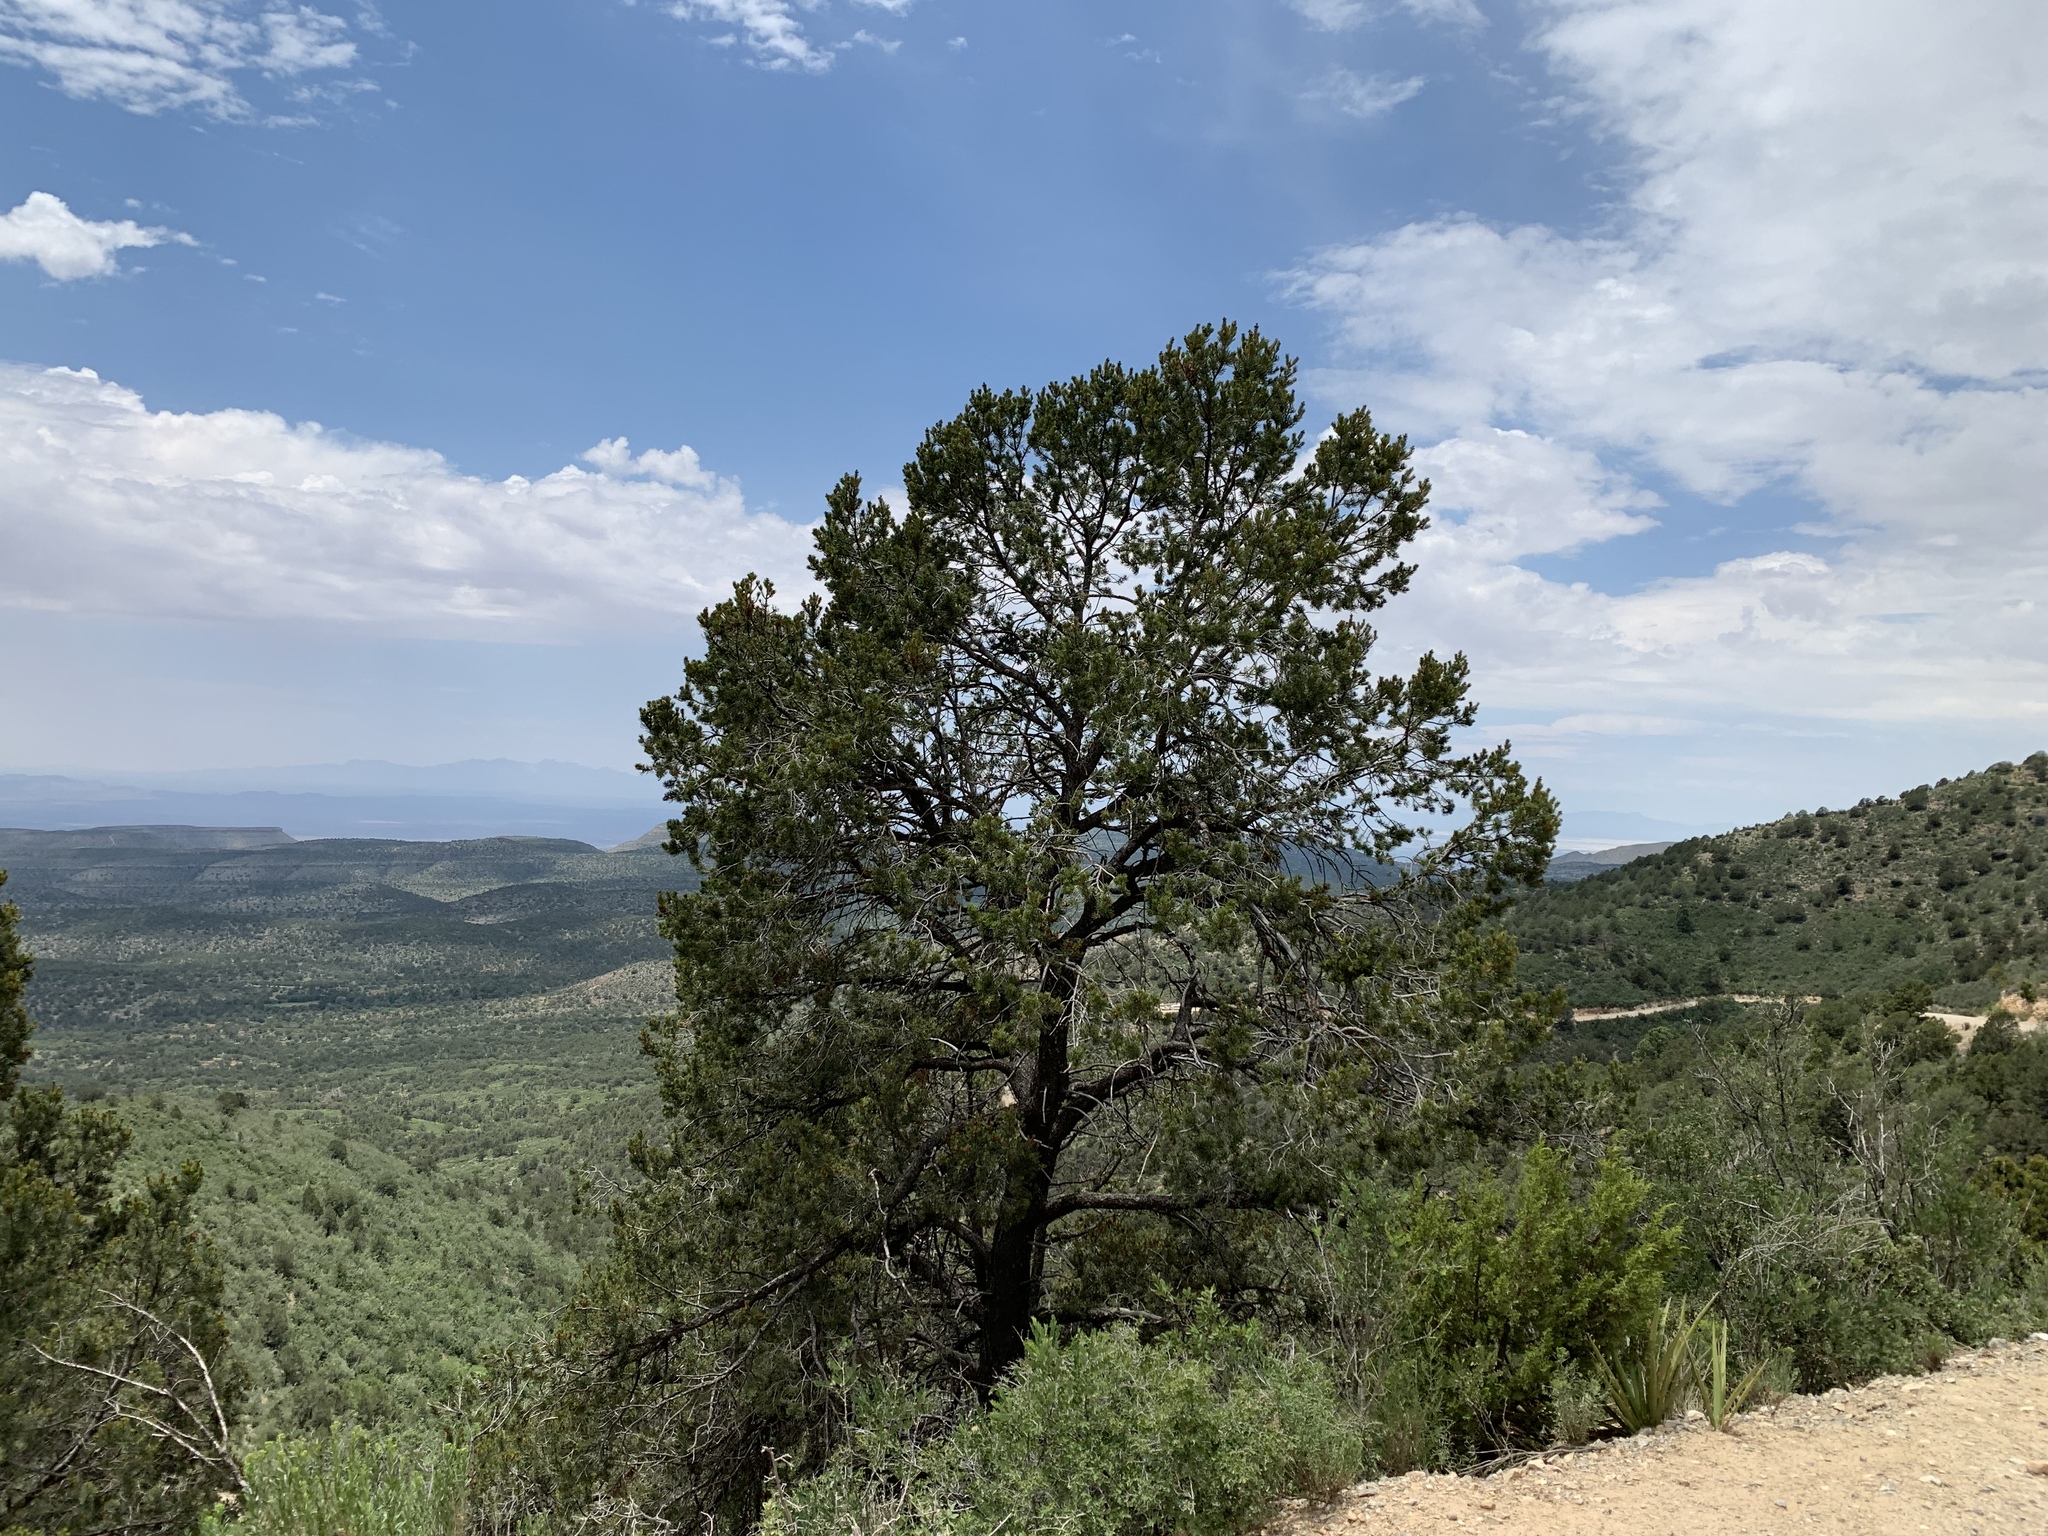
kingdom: Plantae
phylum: Tracheophyta
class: Pinopsida
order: Pinales
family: Pinaceae
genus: Pinus
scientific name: Pinus edulis
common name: Colorado pinyon
